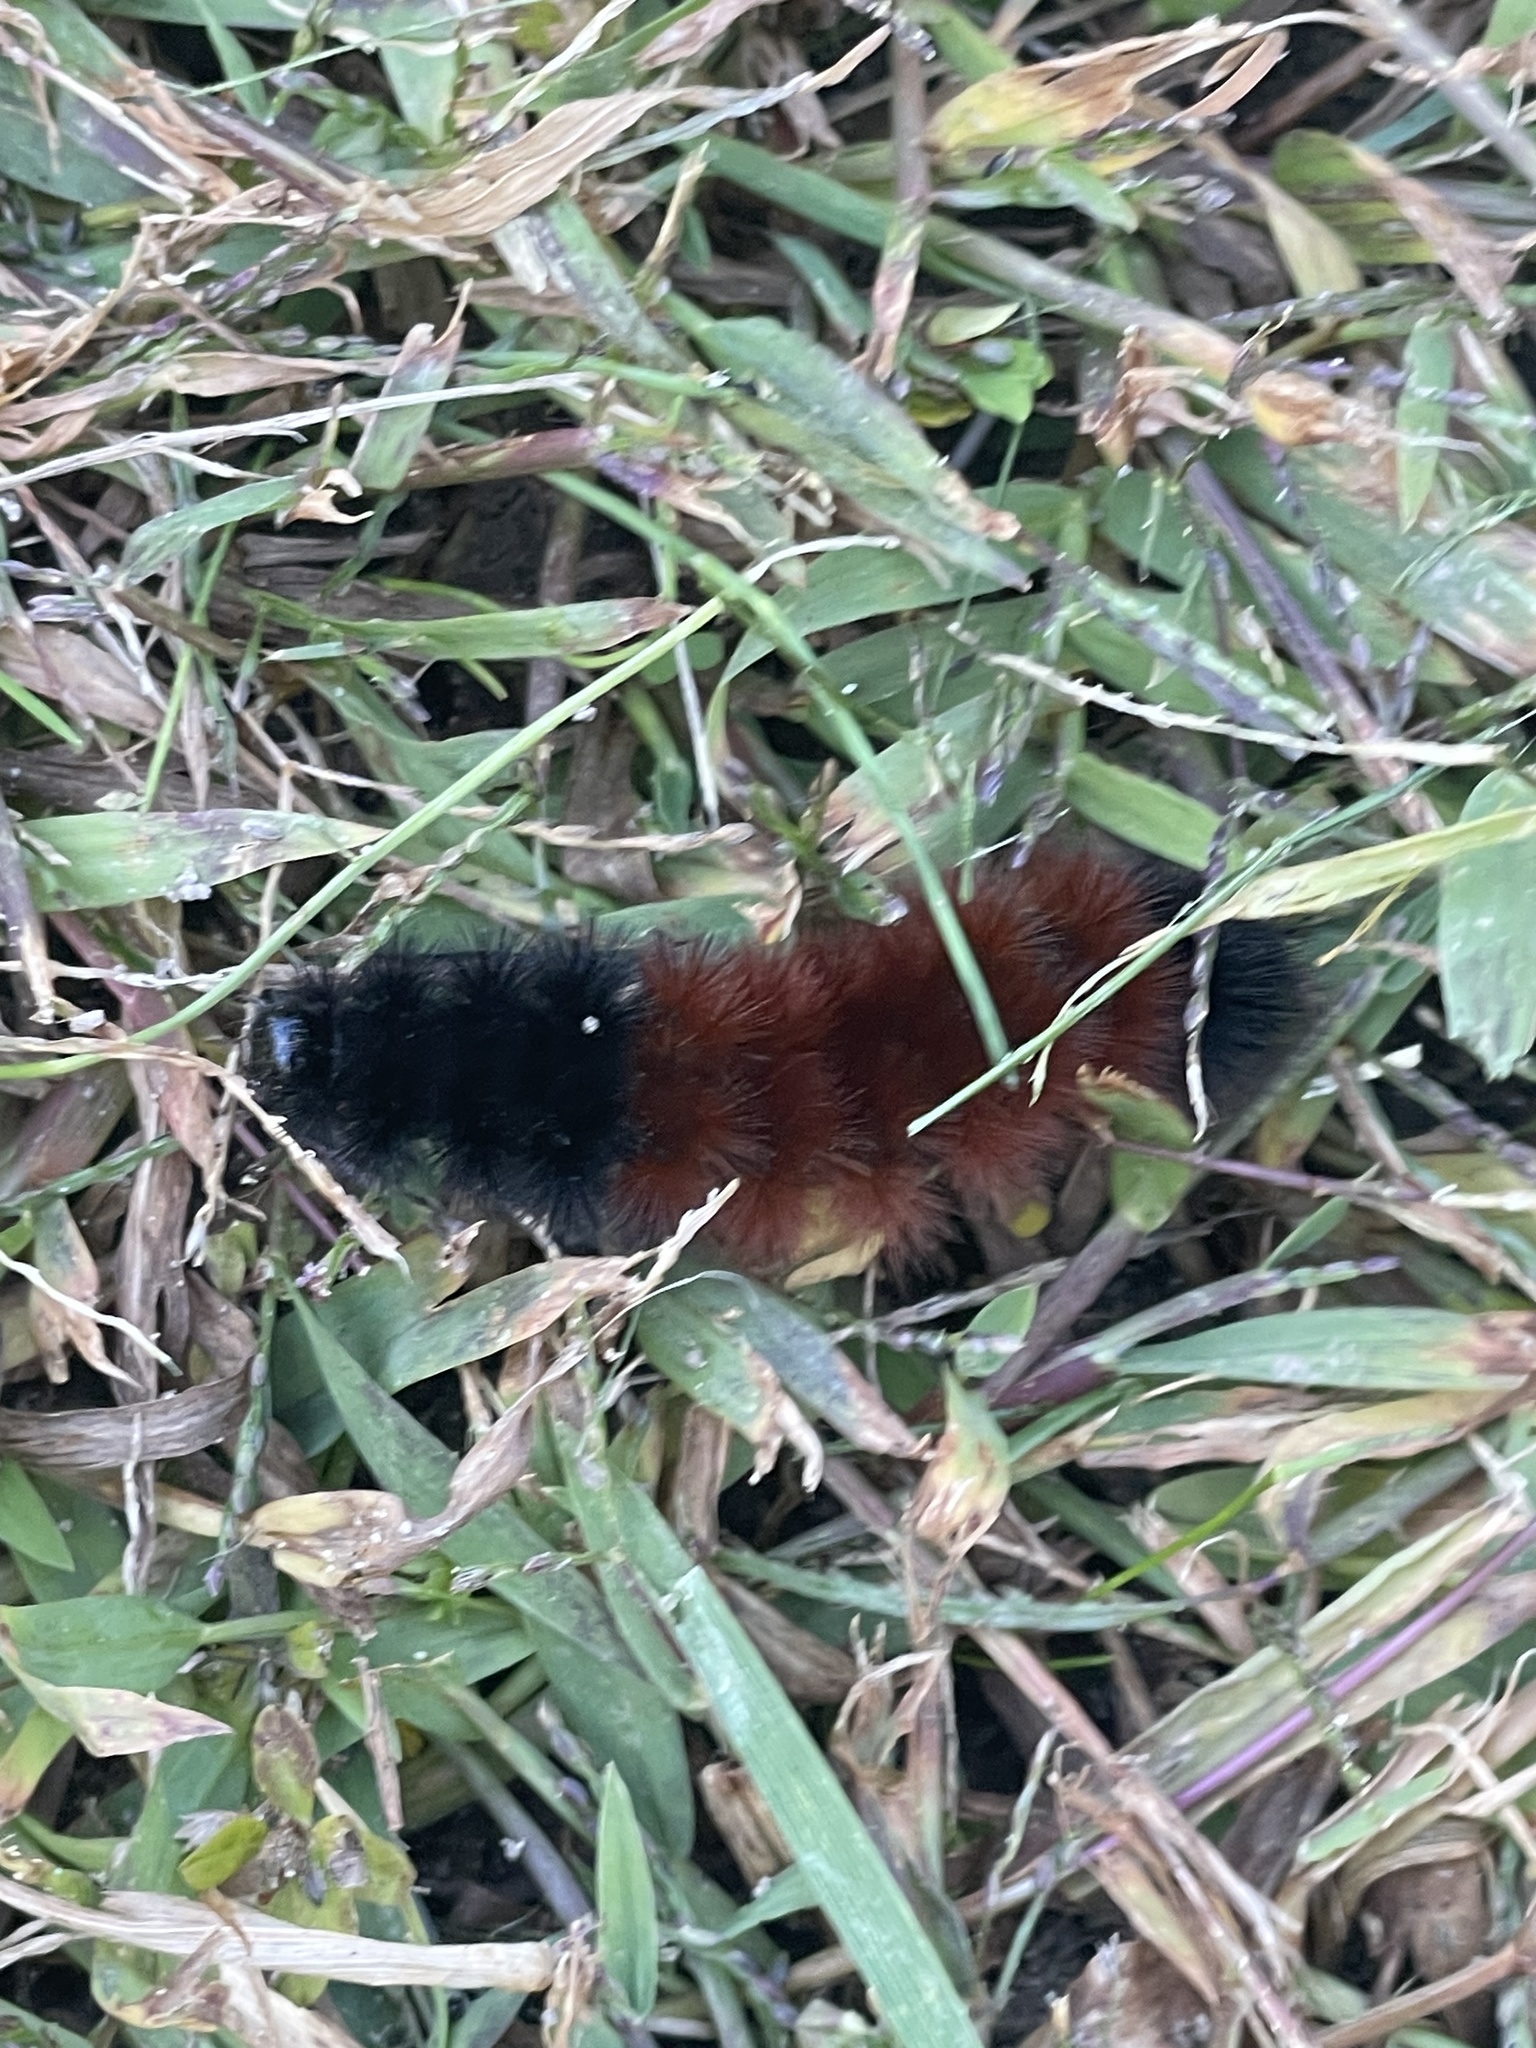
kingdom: Animalia
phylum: Arthropoda
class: Insecta
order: Lepidoptera
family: Erebidae
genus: Pyrrharctia
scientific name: Pyrrharctia isabella
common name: Isabella tiger moth
